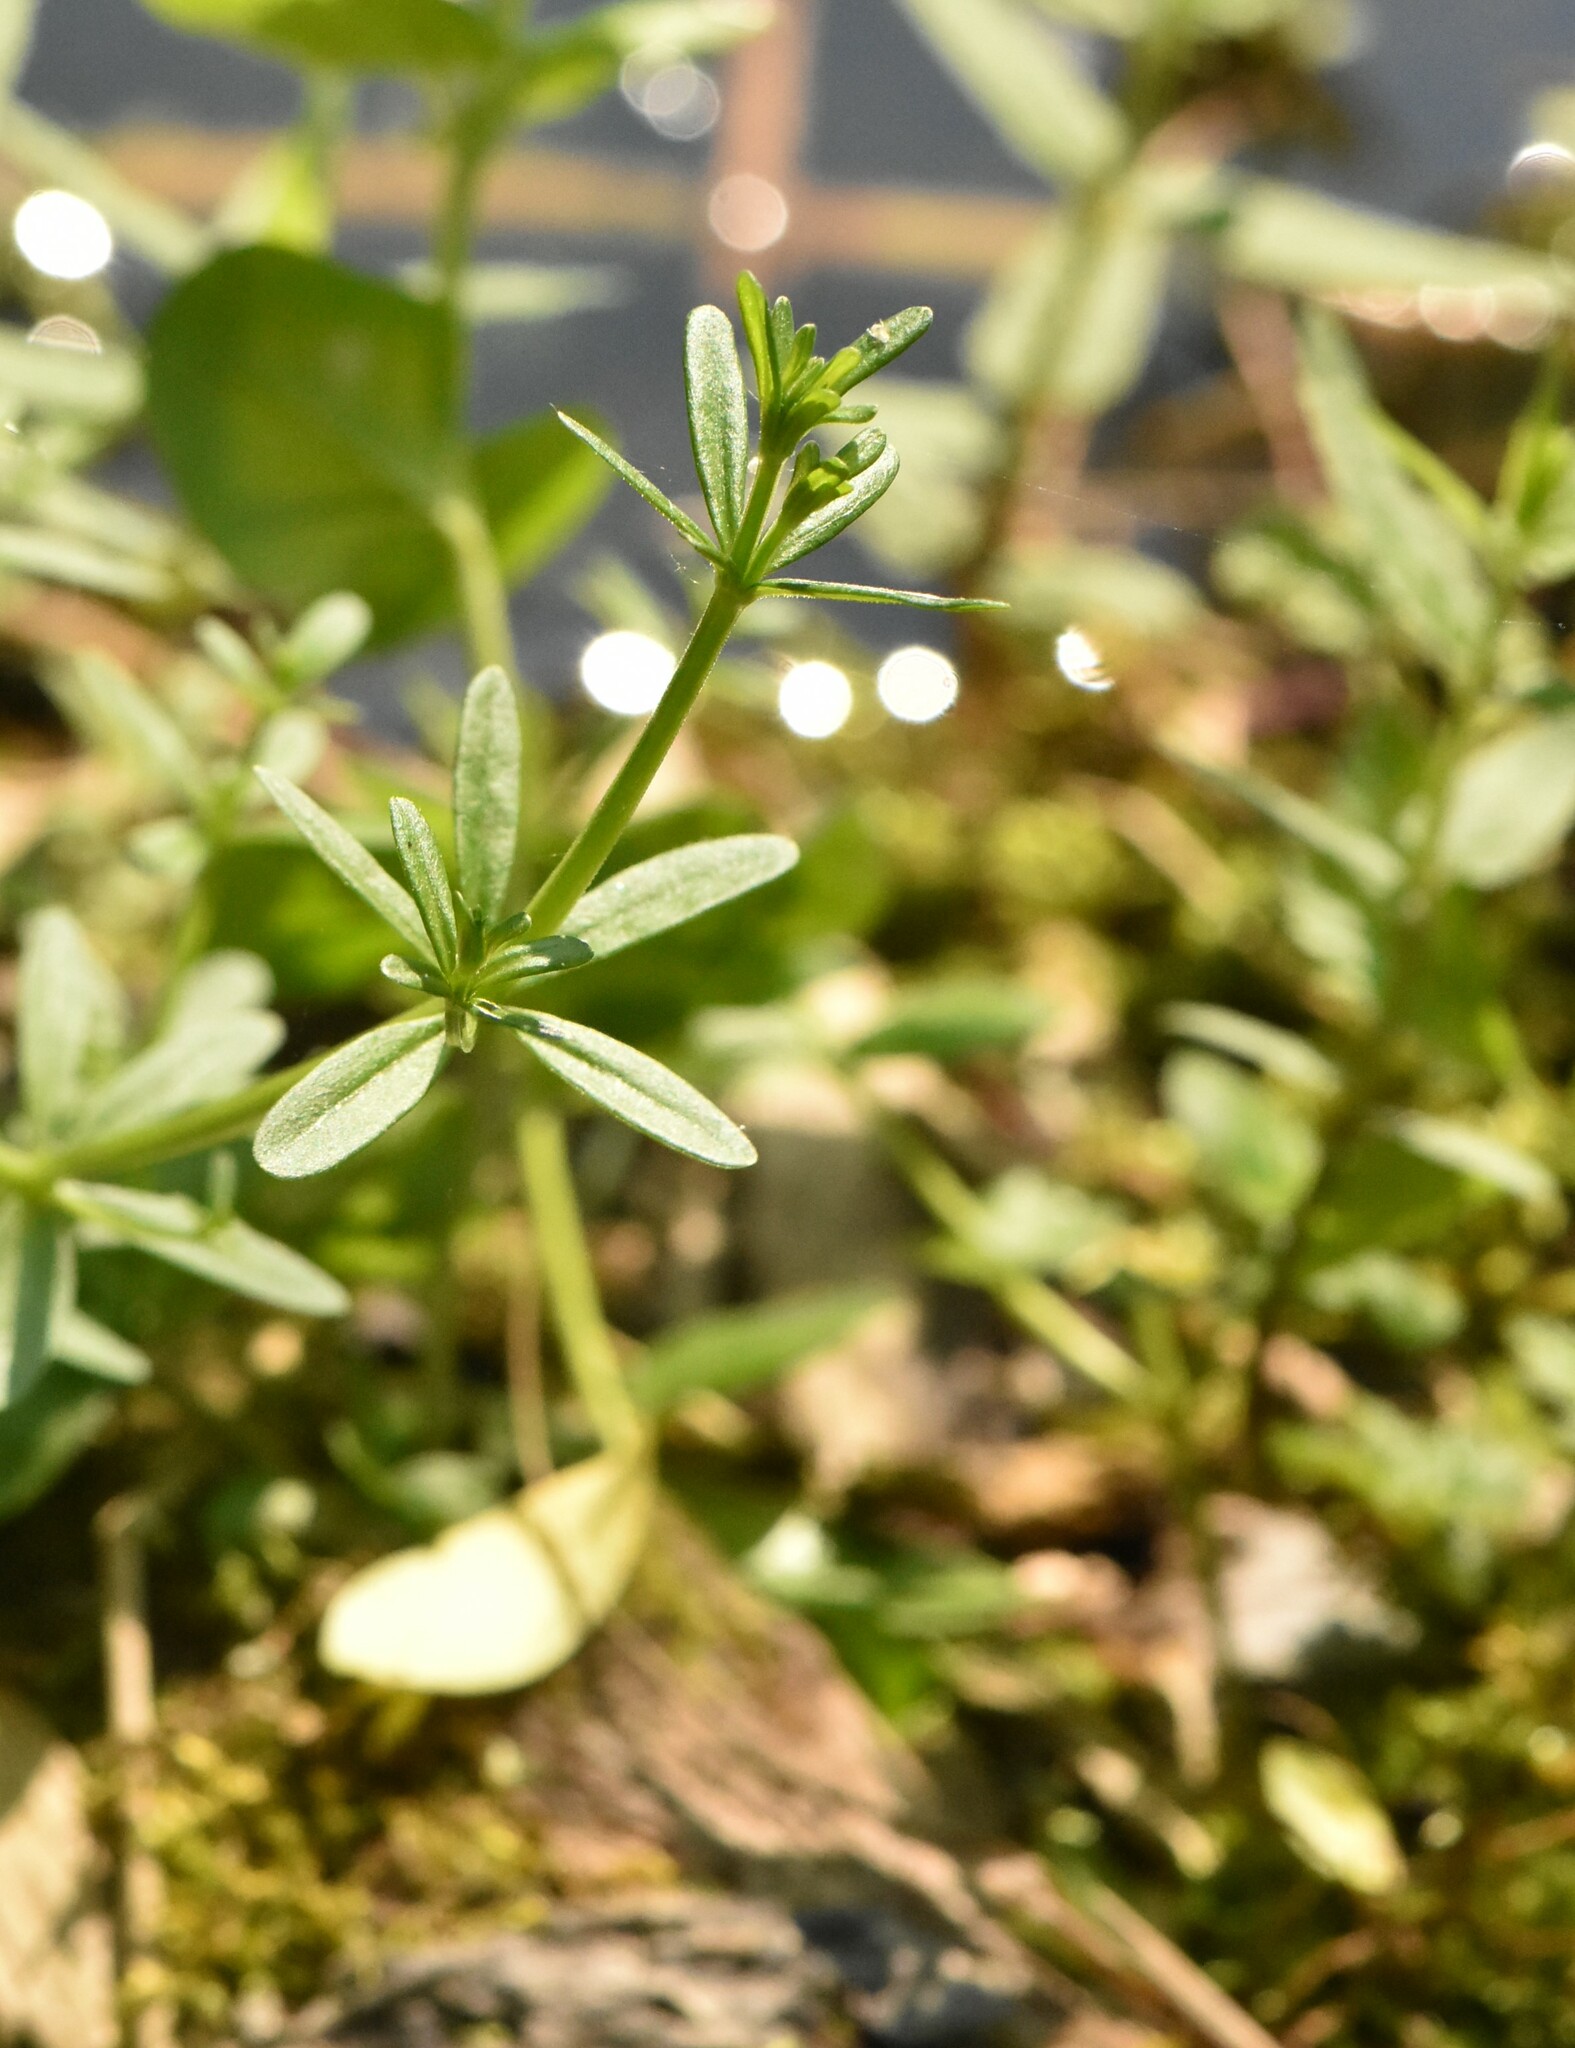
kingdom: Plantae
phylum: Tracheophyta
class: Magnoliopsida
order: Gentianales
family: Rubiaceae
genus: Galium
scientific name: Galium palustre
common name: Common marsh-bedstraw
